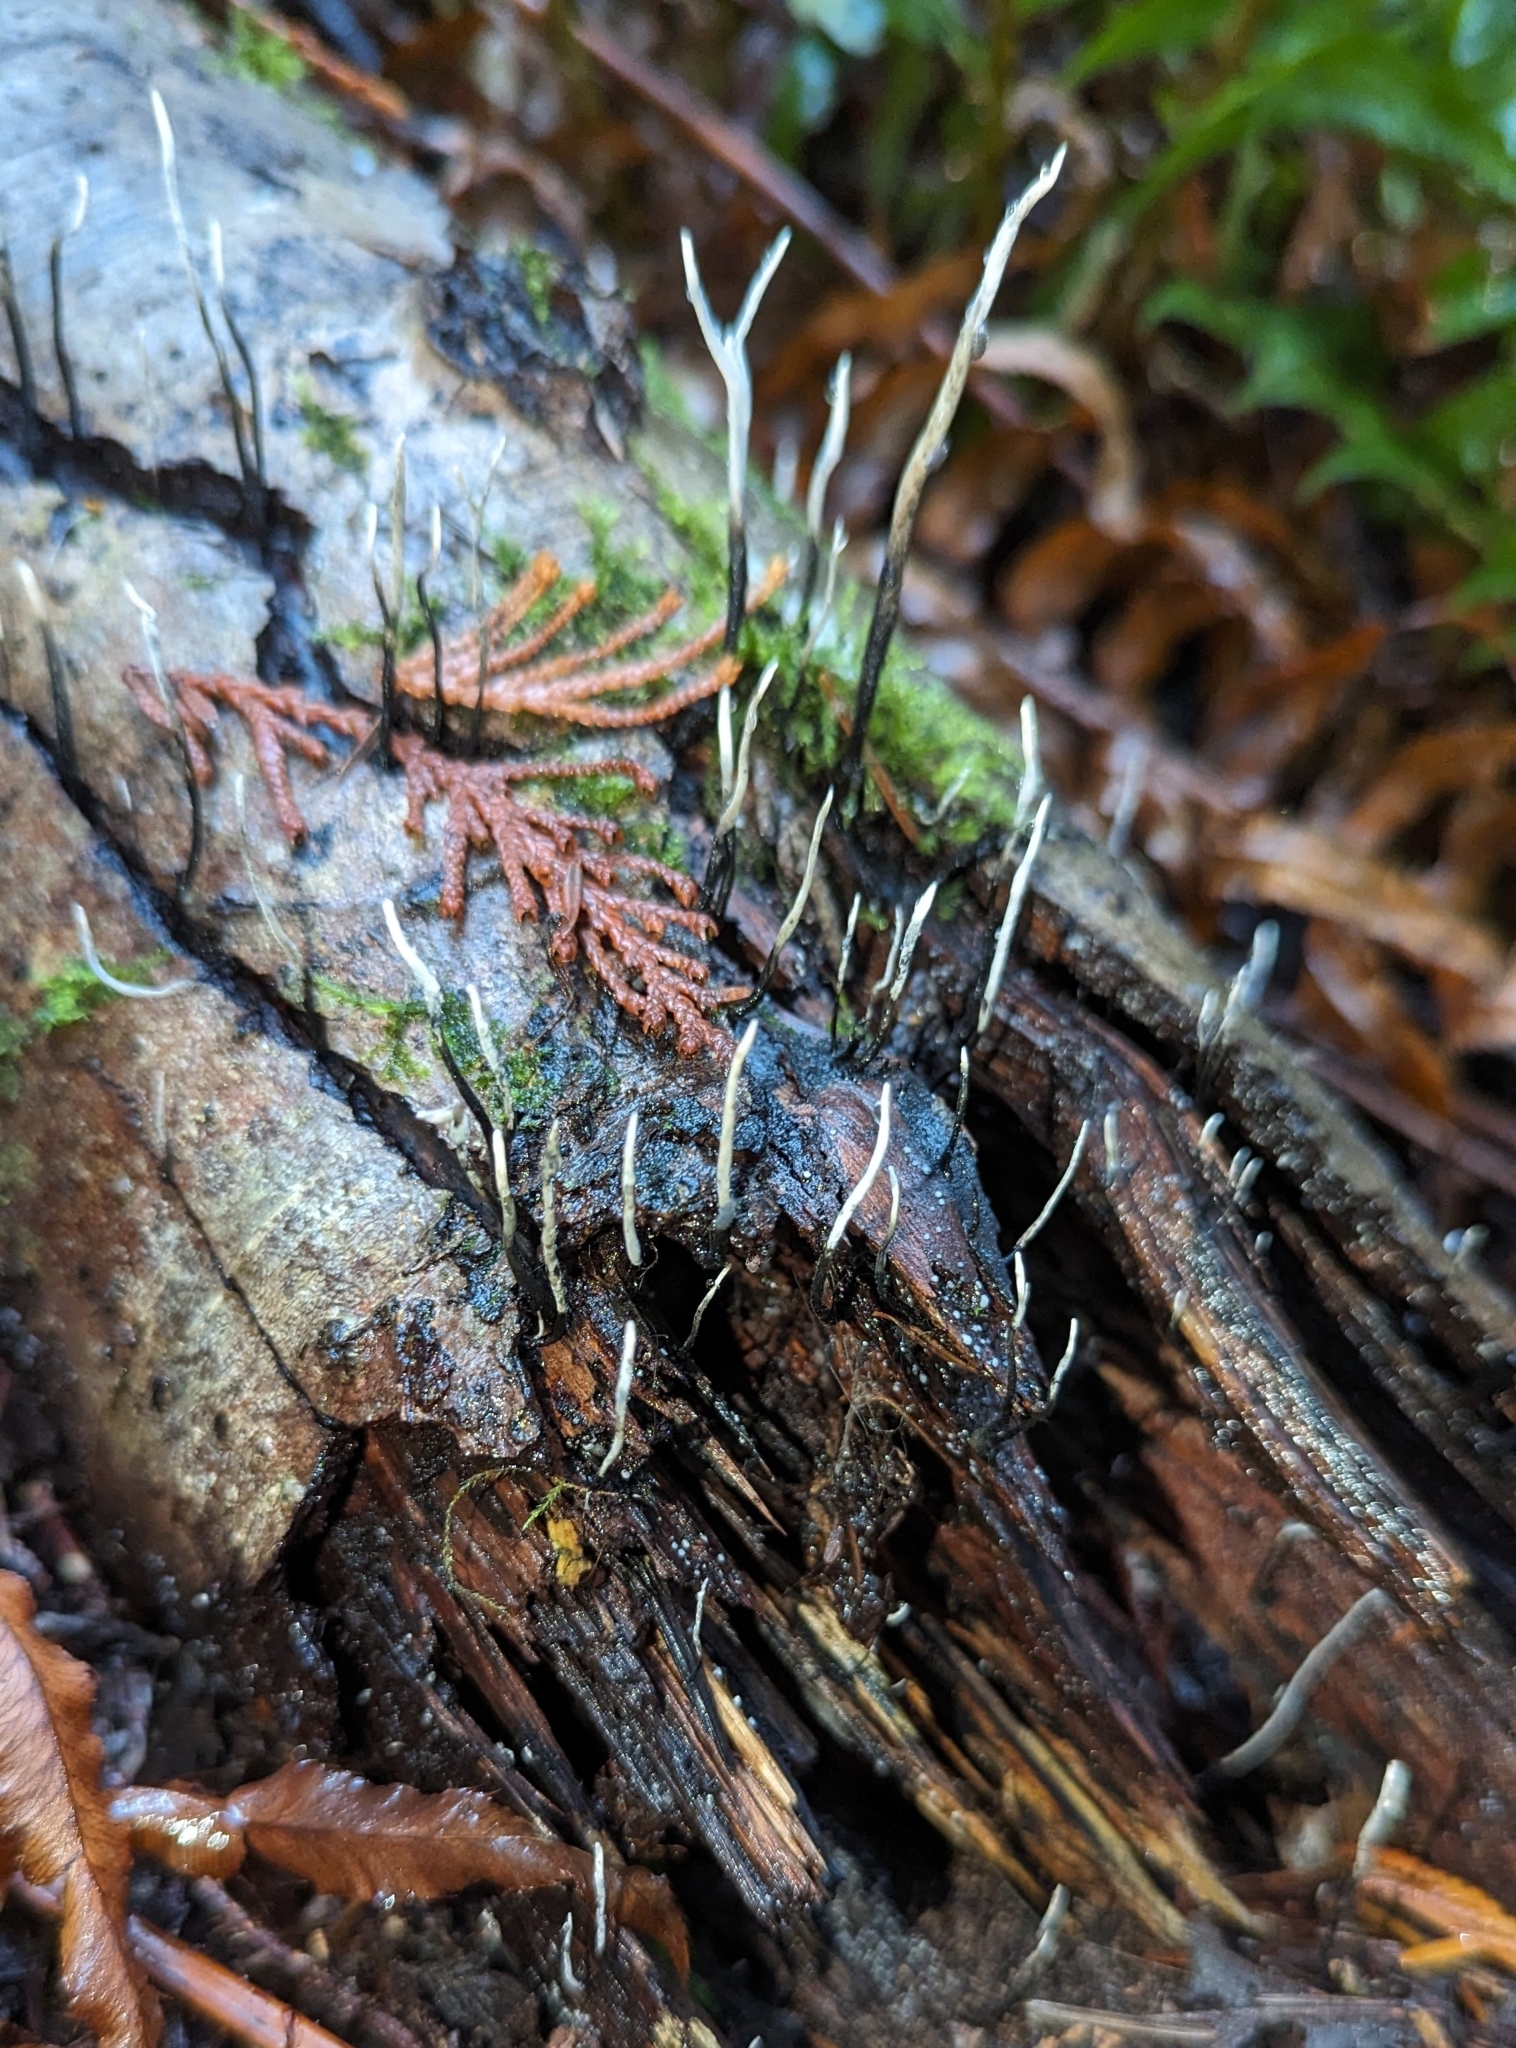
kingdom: Fungi
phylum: Ascomycota
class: Sordariomycetes
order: Xylariales
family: Xylariaceae
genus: Xylaria
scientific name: Xylaria hypoxylon
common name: Candle-snuff fungus
